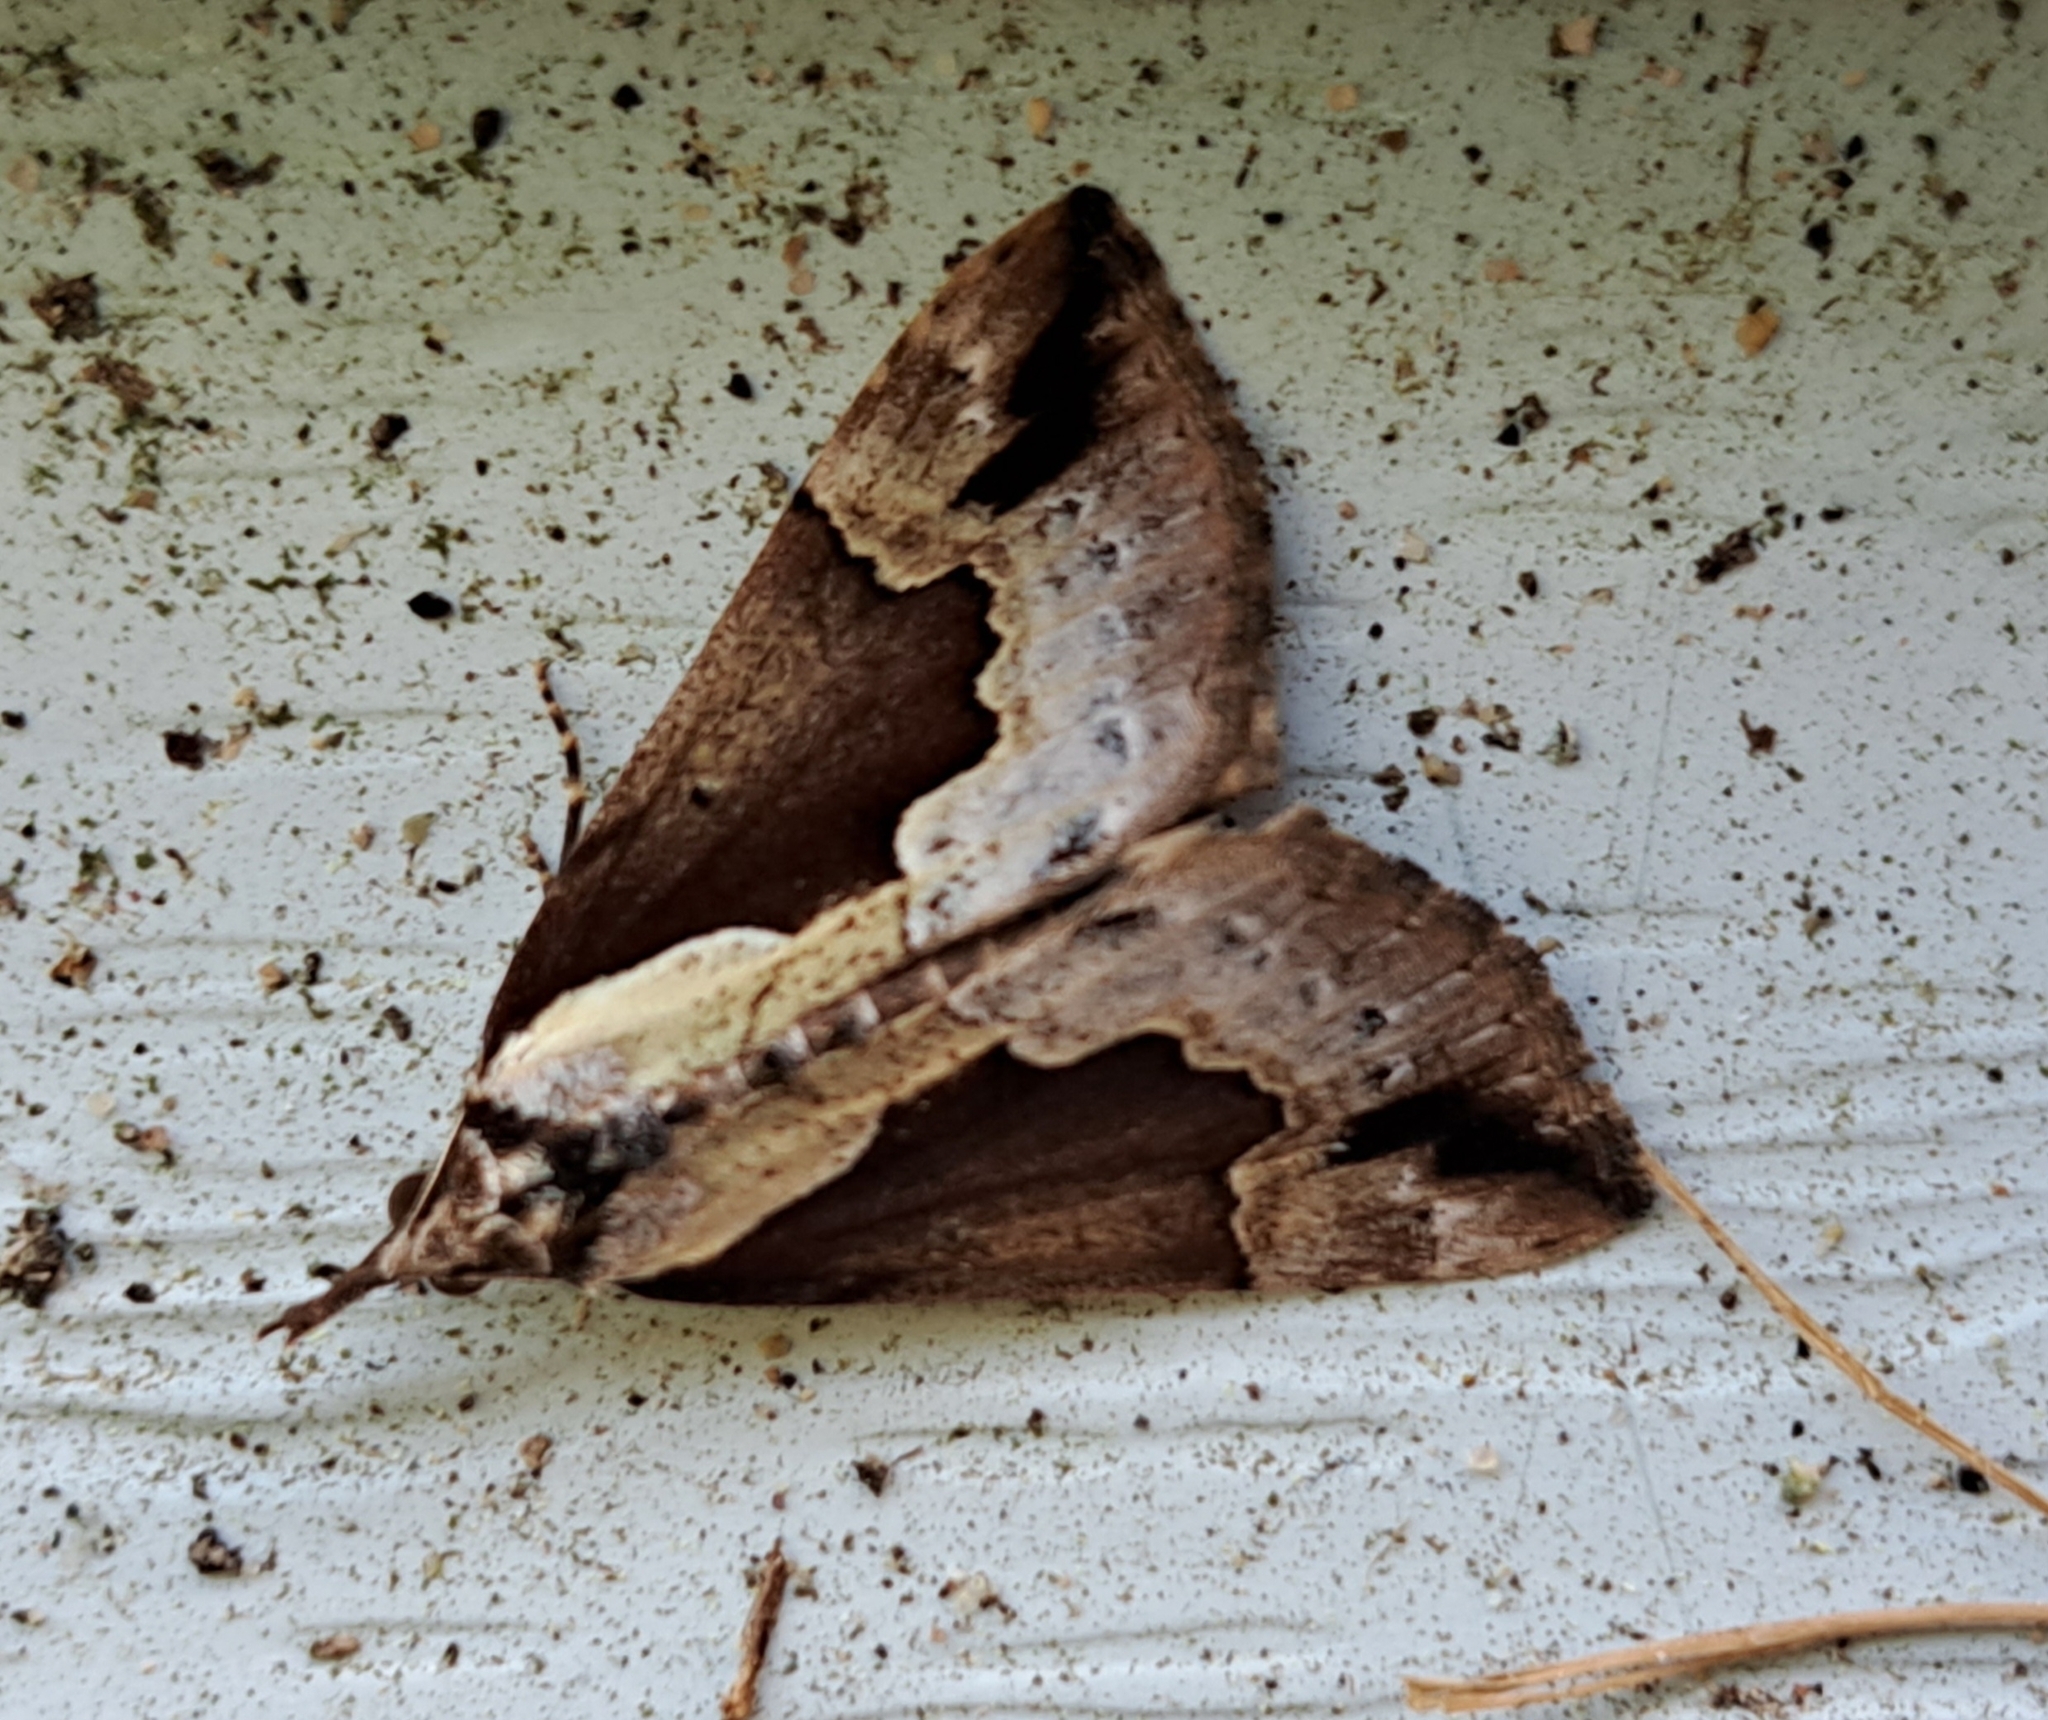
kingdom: Animalia
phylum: Arthropoda
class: Insecta
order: Lepidoptera
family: Erebidae
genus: Hypena
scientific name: Hypena baltimoralis
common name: Baltimore snout
